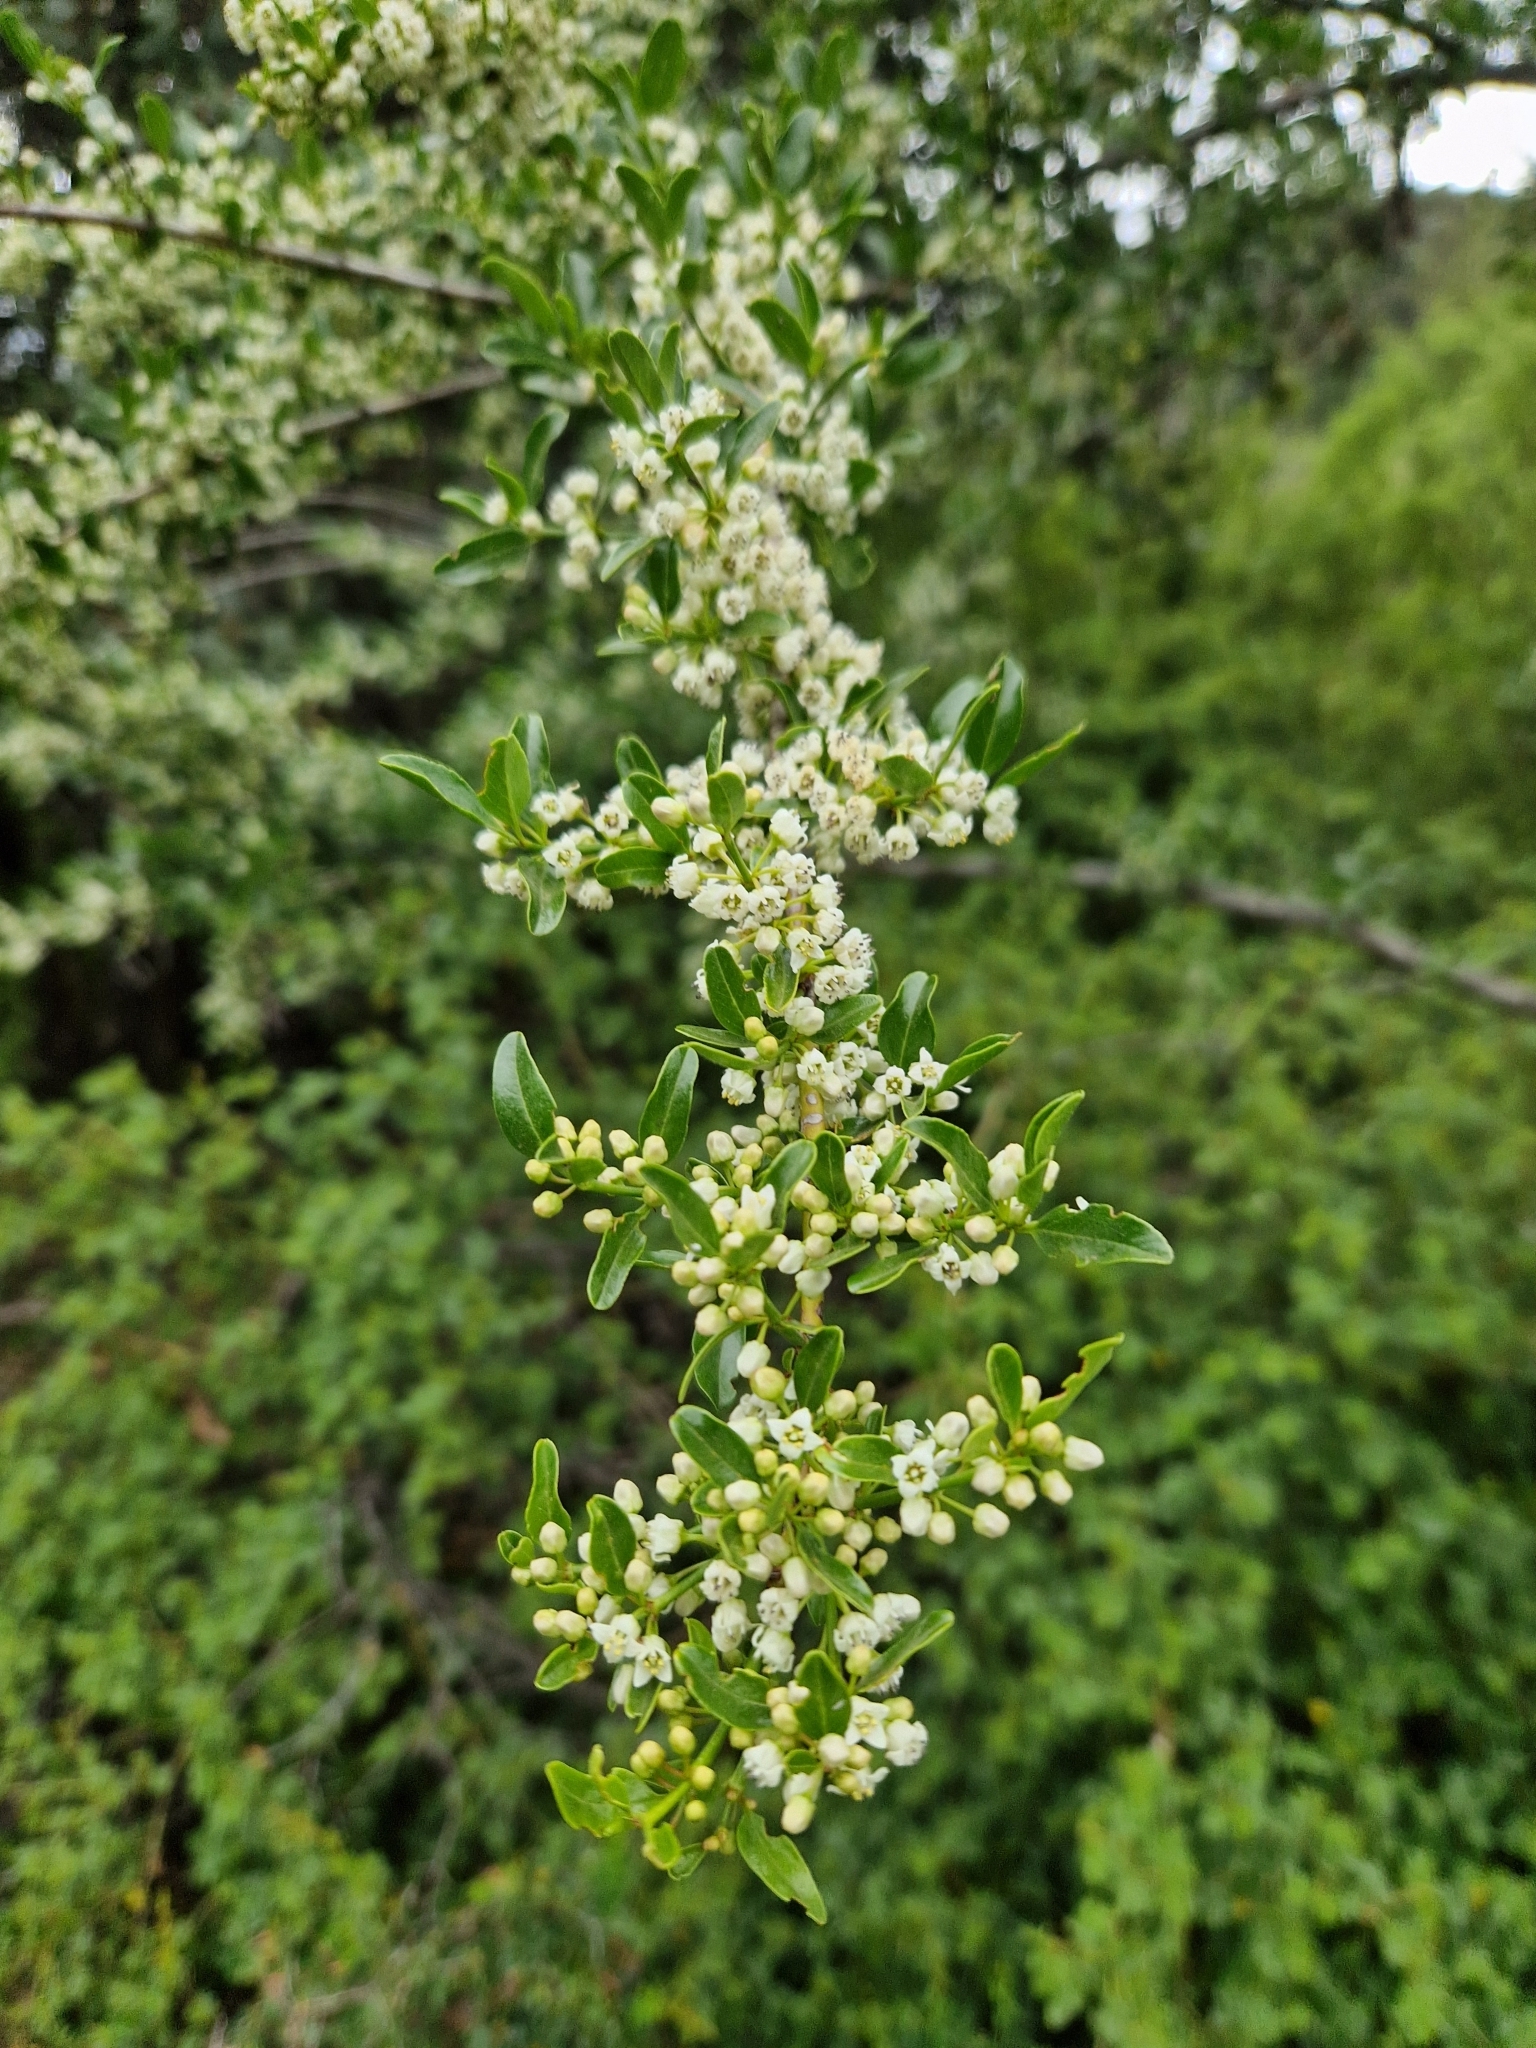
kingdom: Plantae
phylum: Tracheophyta
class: Magnoliopsida
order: Rosales
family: Rhamnaceae
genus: Discaria
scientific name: Discaria chacaye
